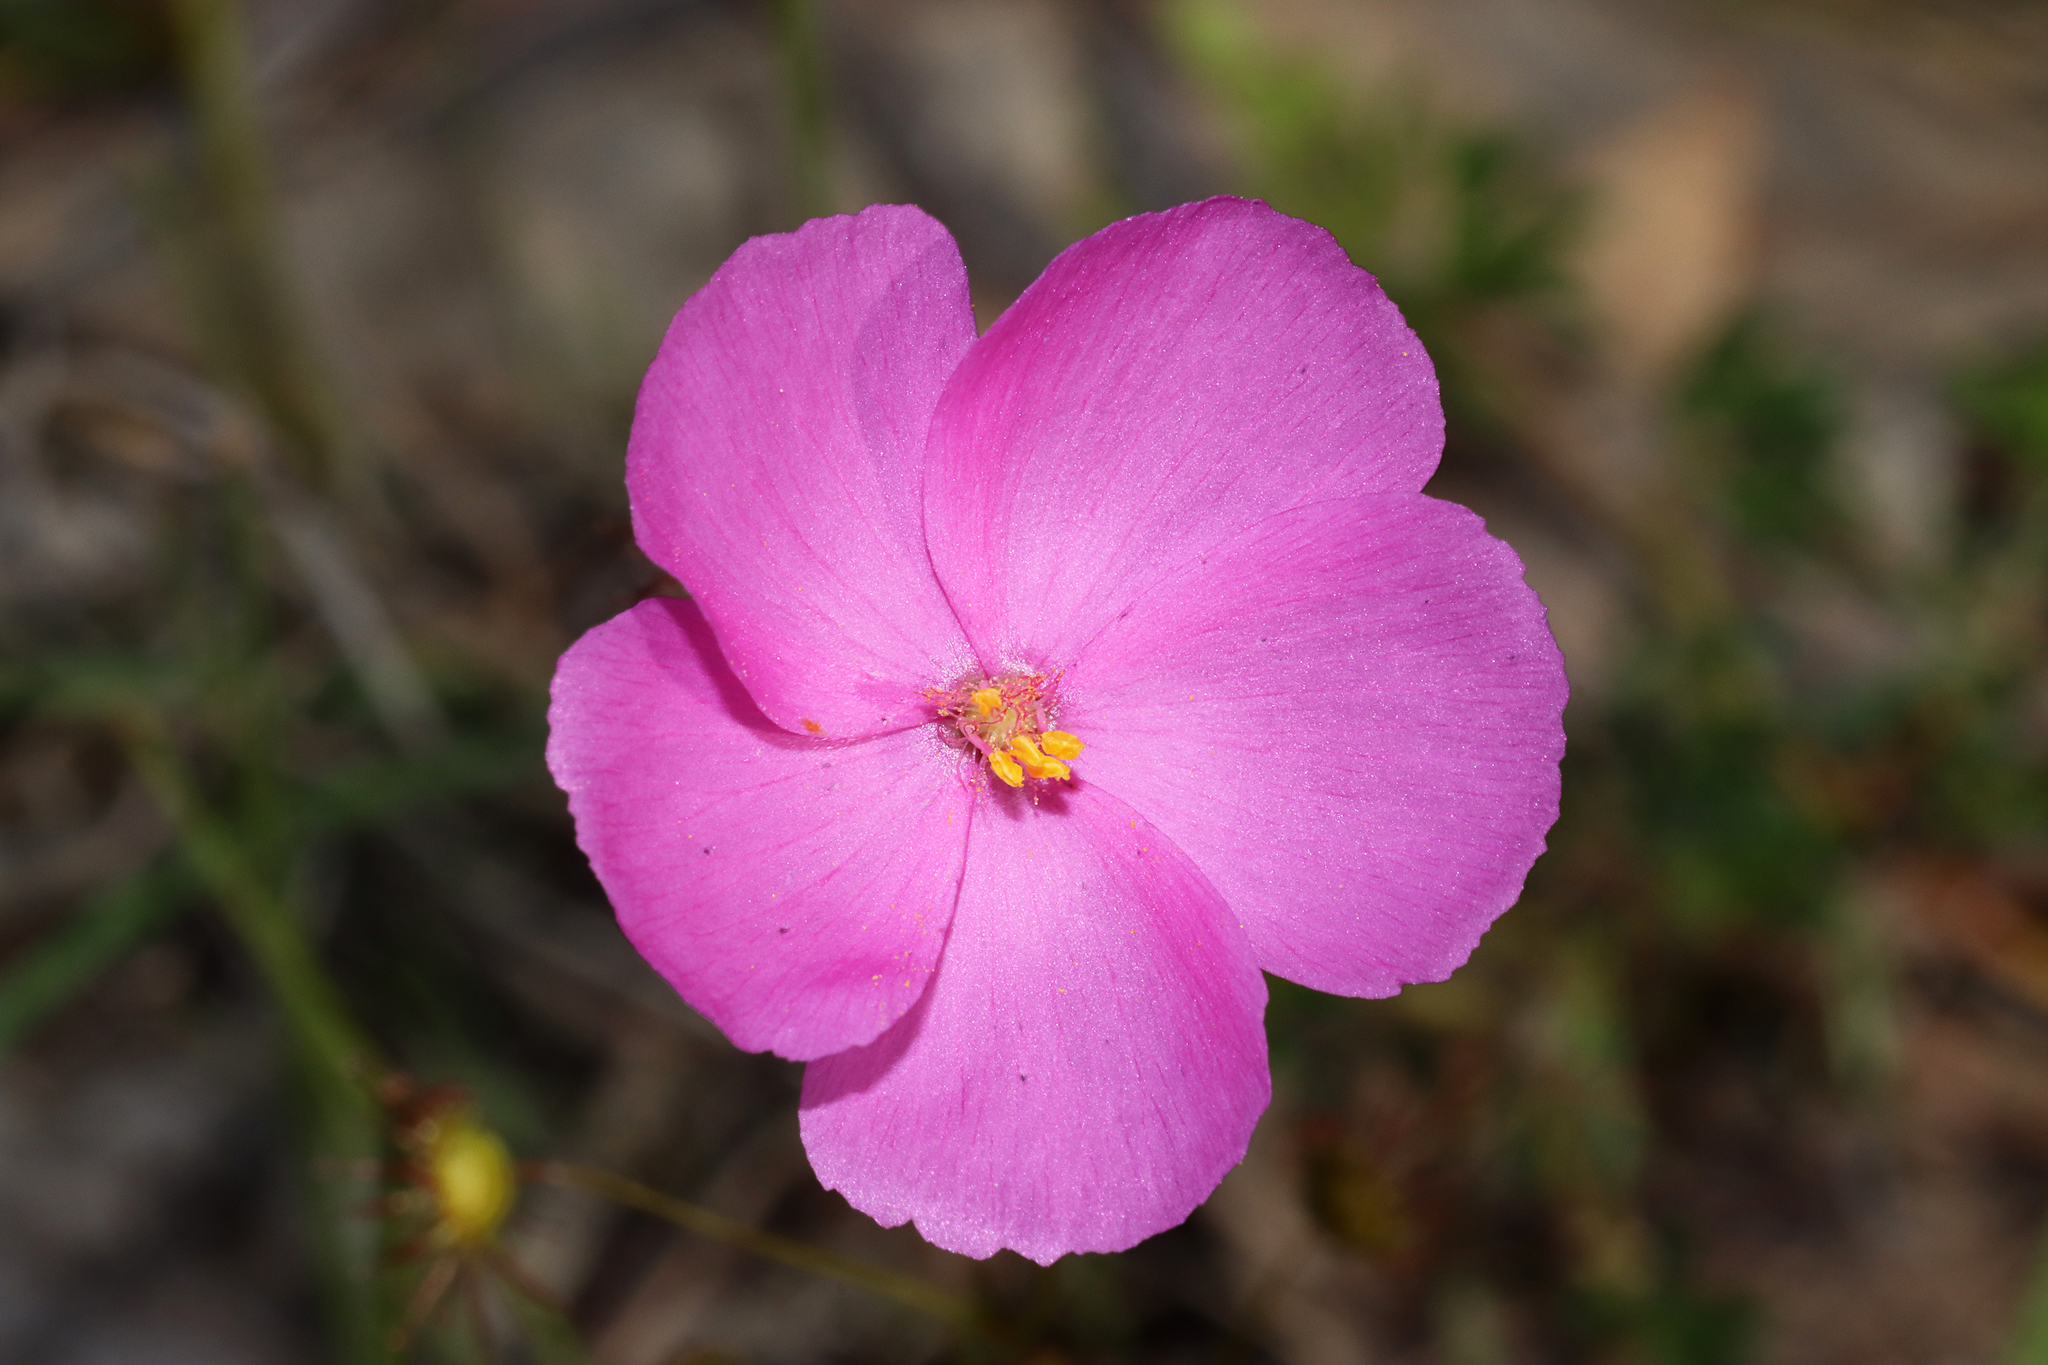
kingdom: Plantae
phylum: Tracheophyta
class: Magnoliopsida
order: Caryophyllales
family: Droseraceae
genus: Drosera
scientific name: Drosera menziesii
